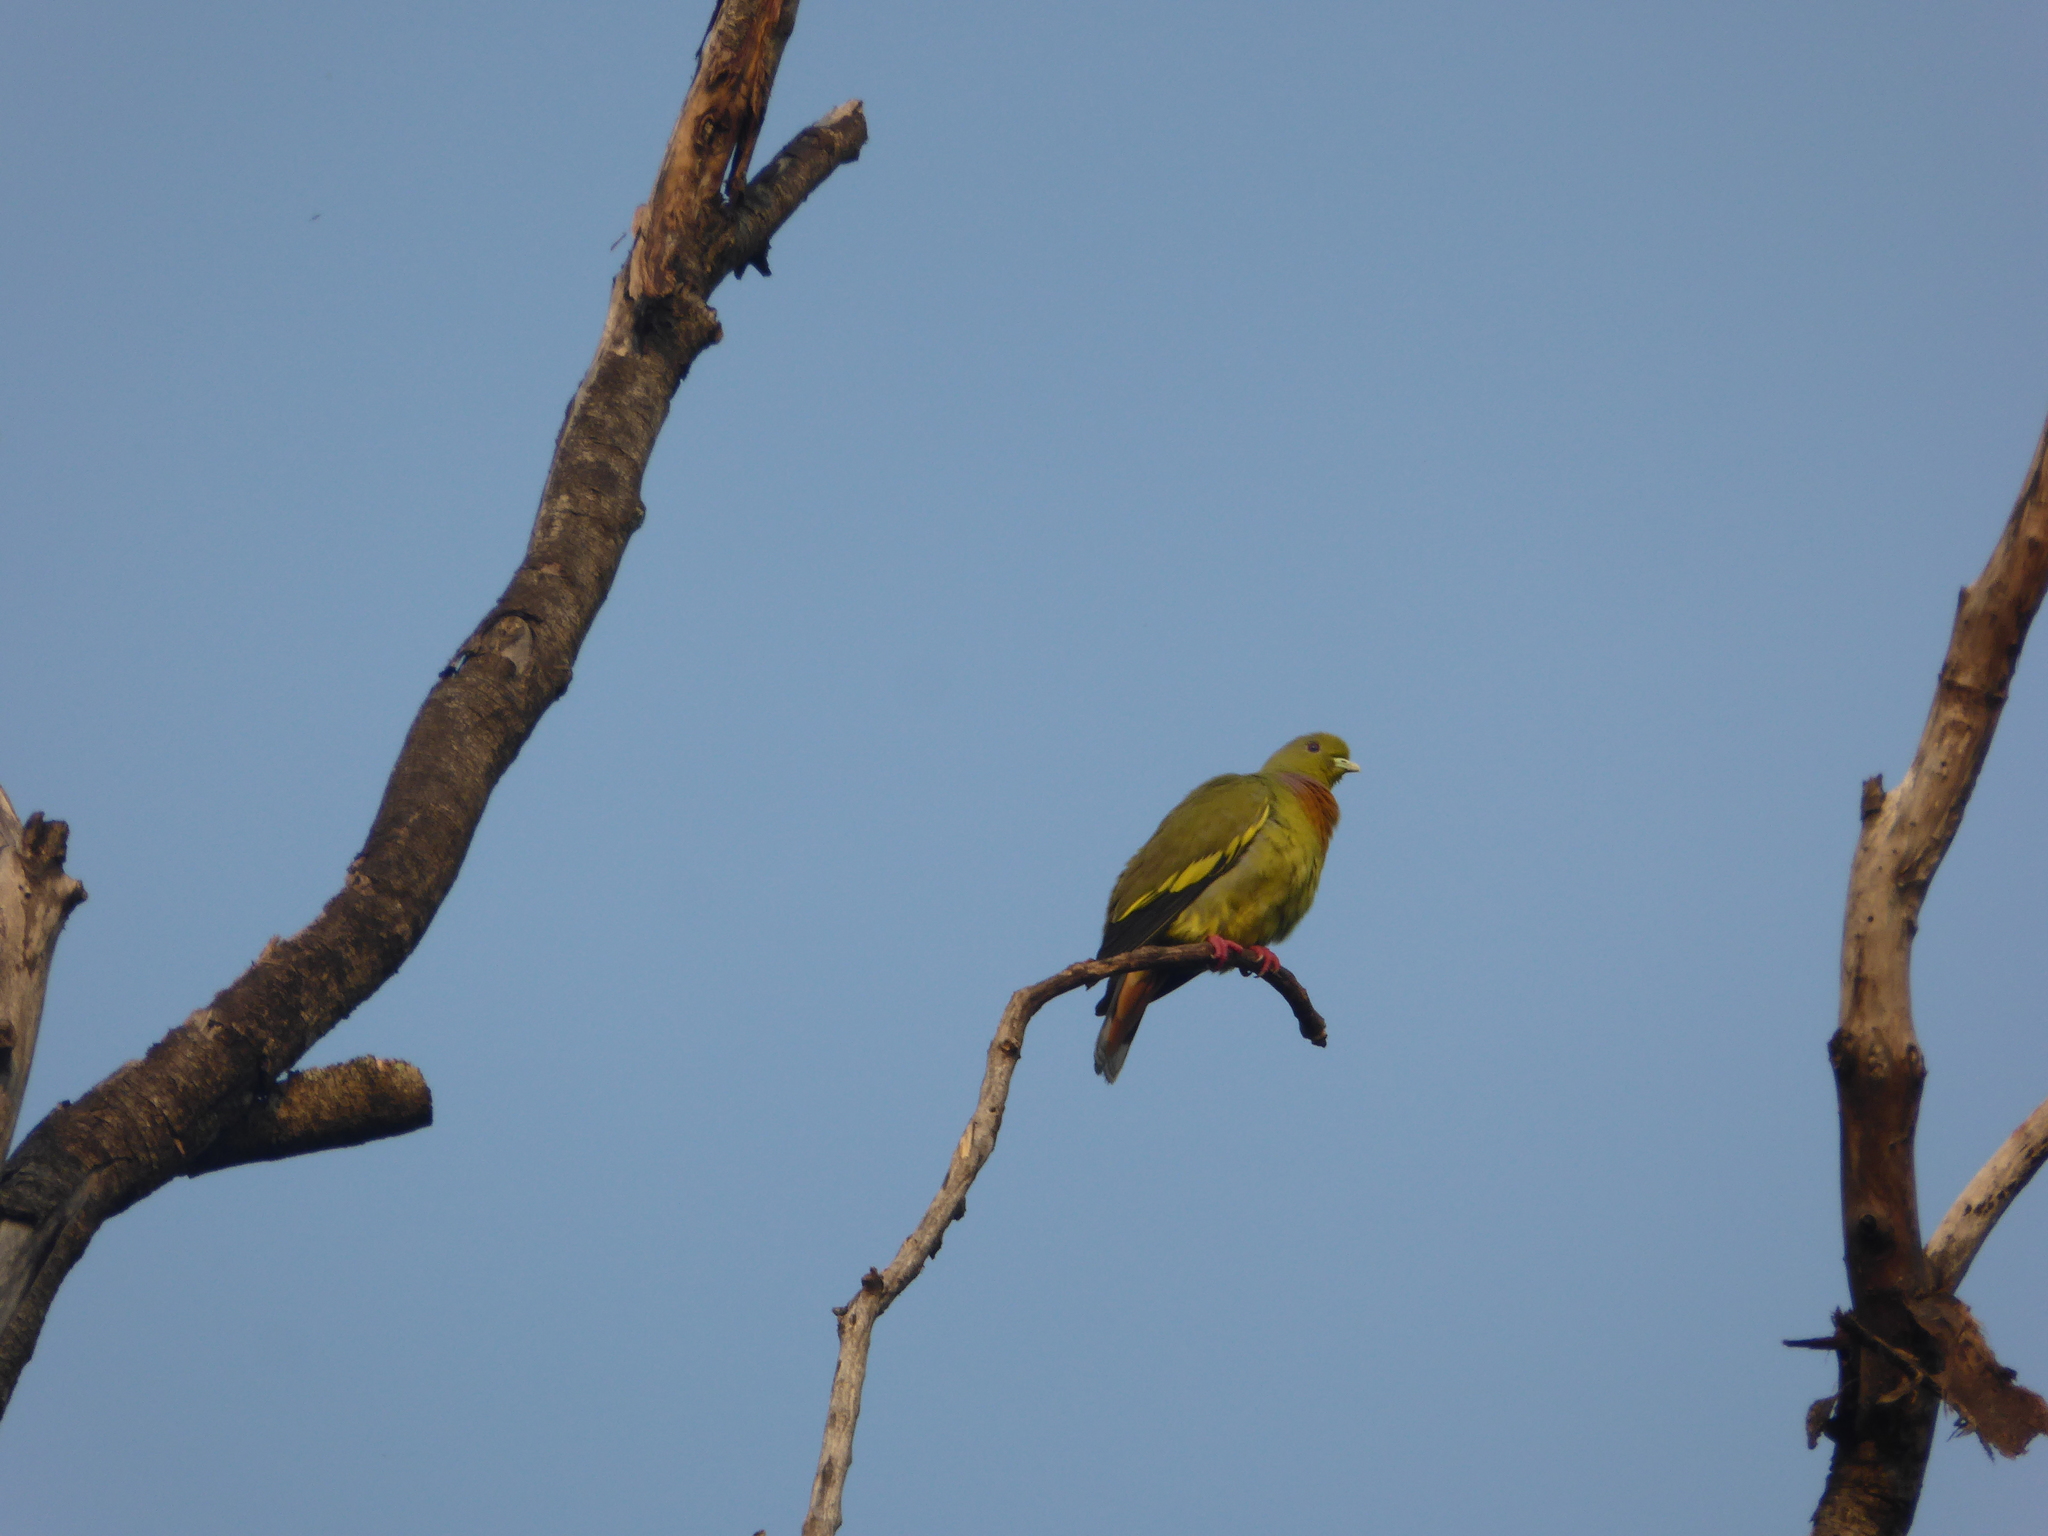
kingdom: Animalia
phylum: Chordata
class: Aves
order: Columbiformes
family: Columbidae
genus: Treron
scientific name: Treron bicinctus
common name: Orange-breasted green pigeon
